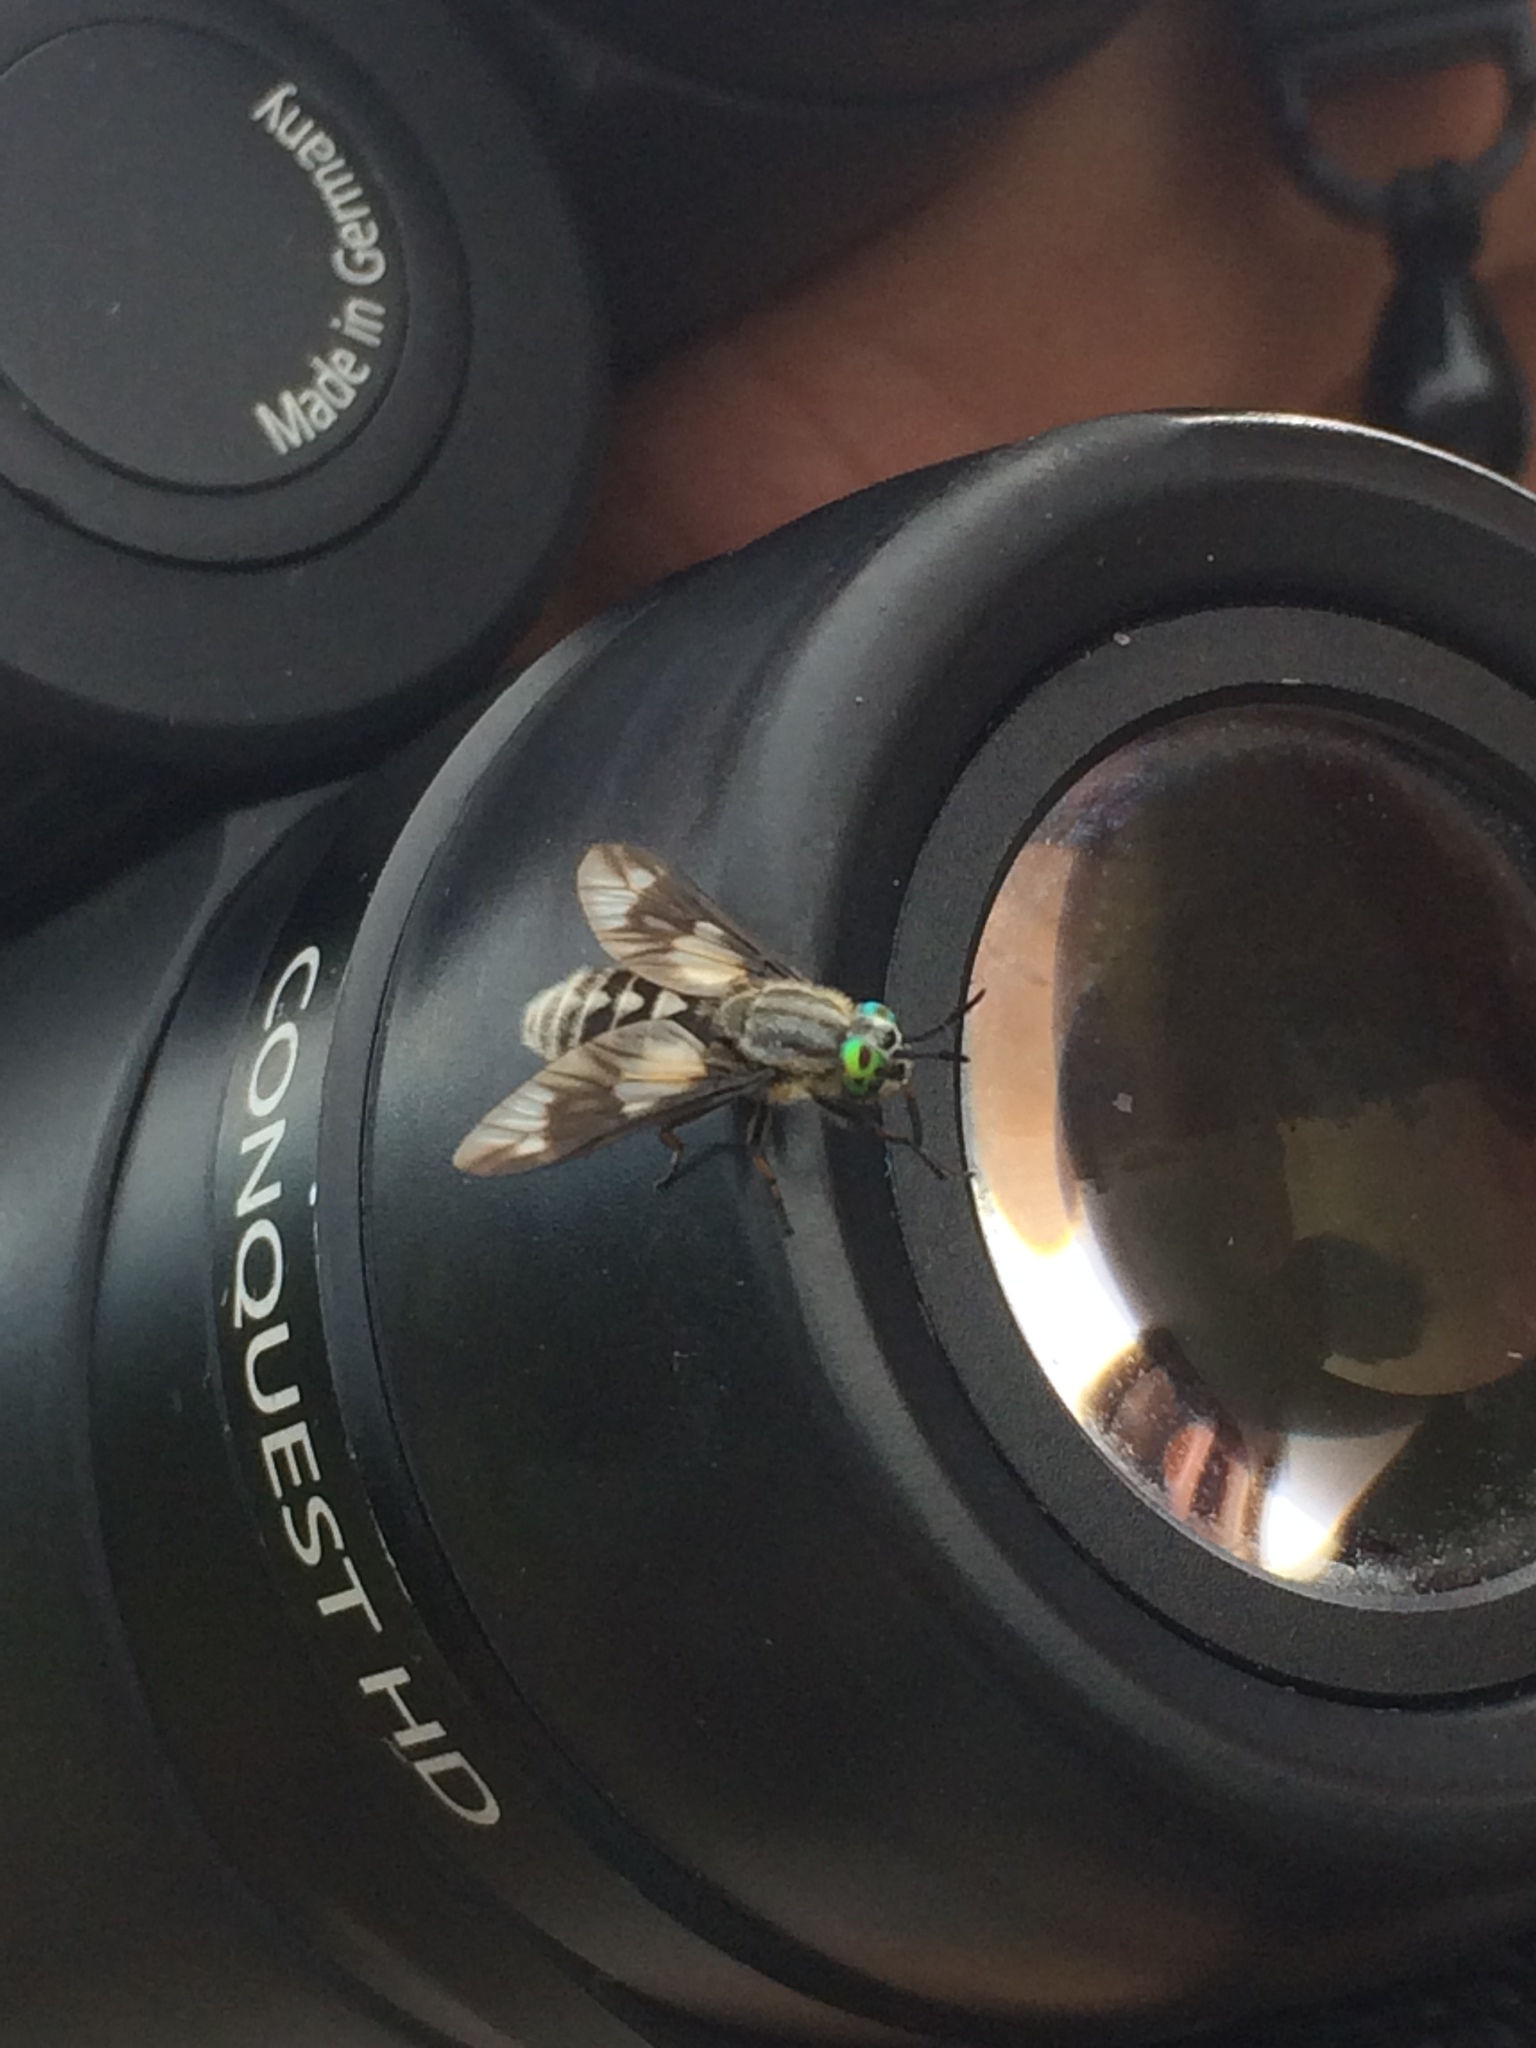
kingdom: Animalia
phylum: Arthropoda
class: Insecta
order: Diptera
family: Tabanidae
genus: Chrysops
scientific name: Chrysops relictus
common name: Twin-lobed deerfly
